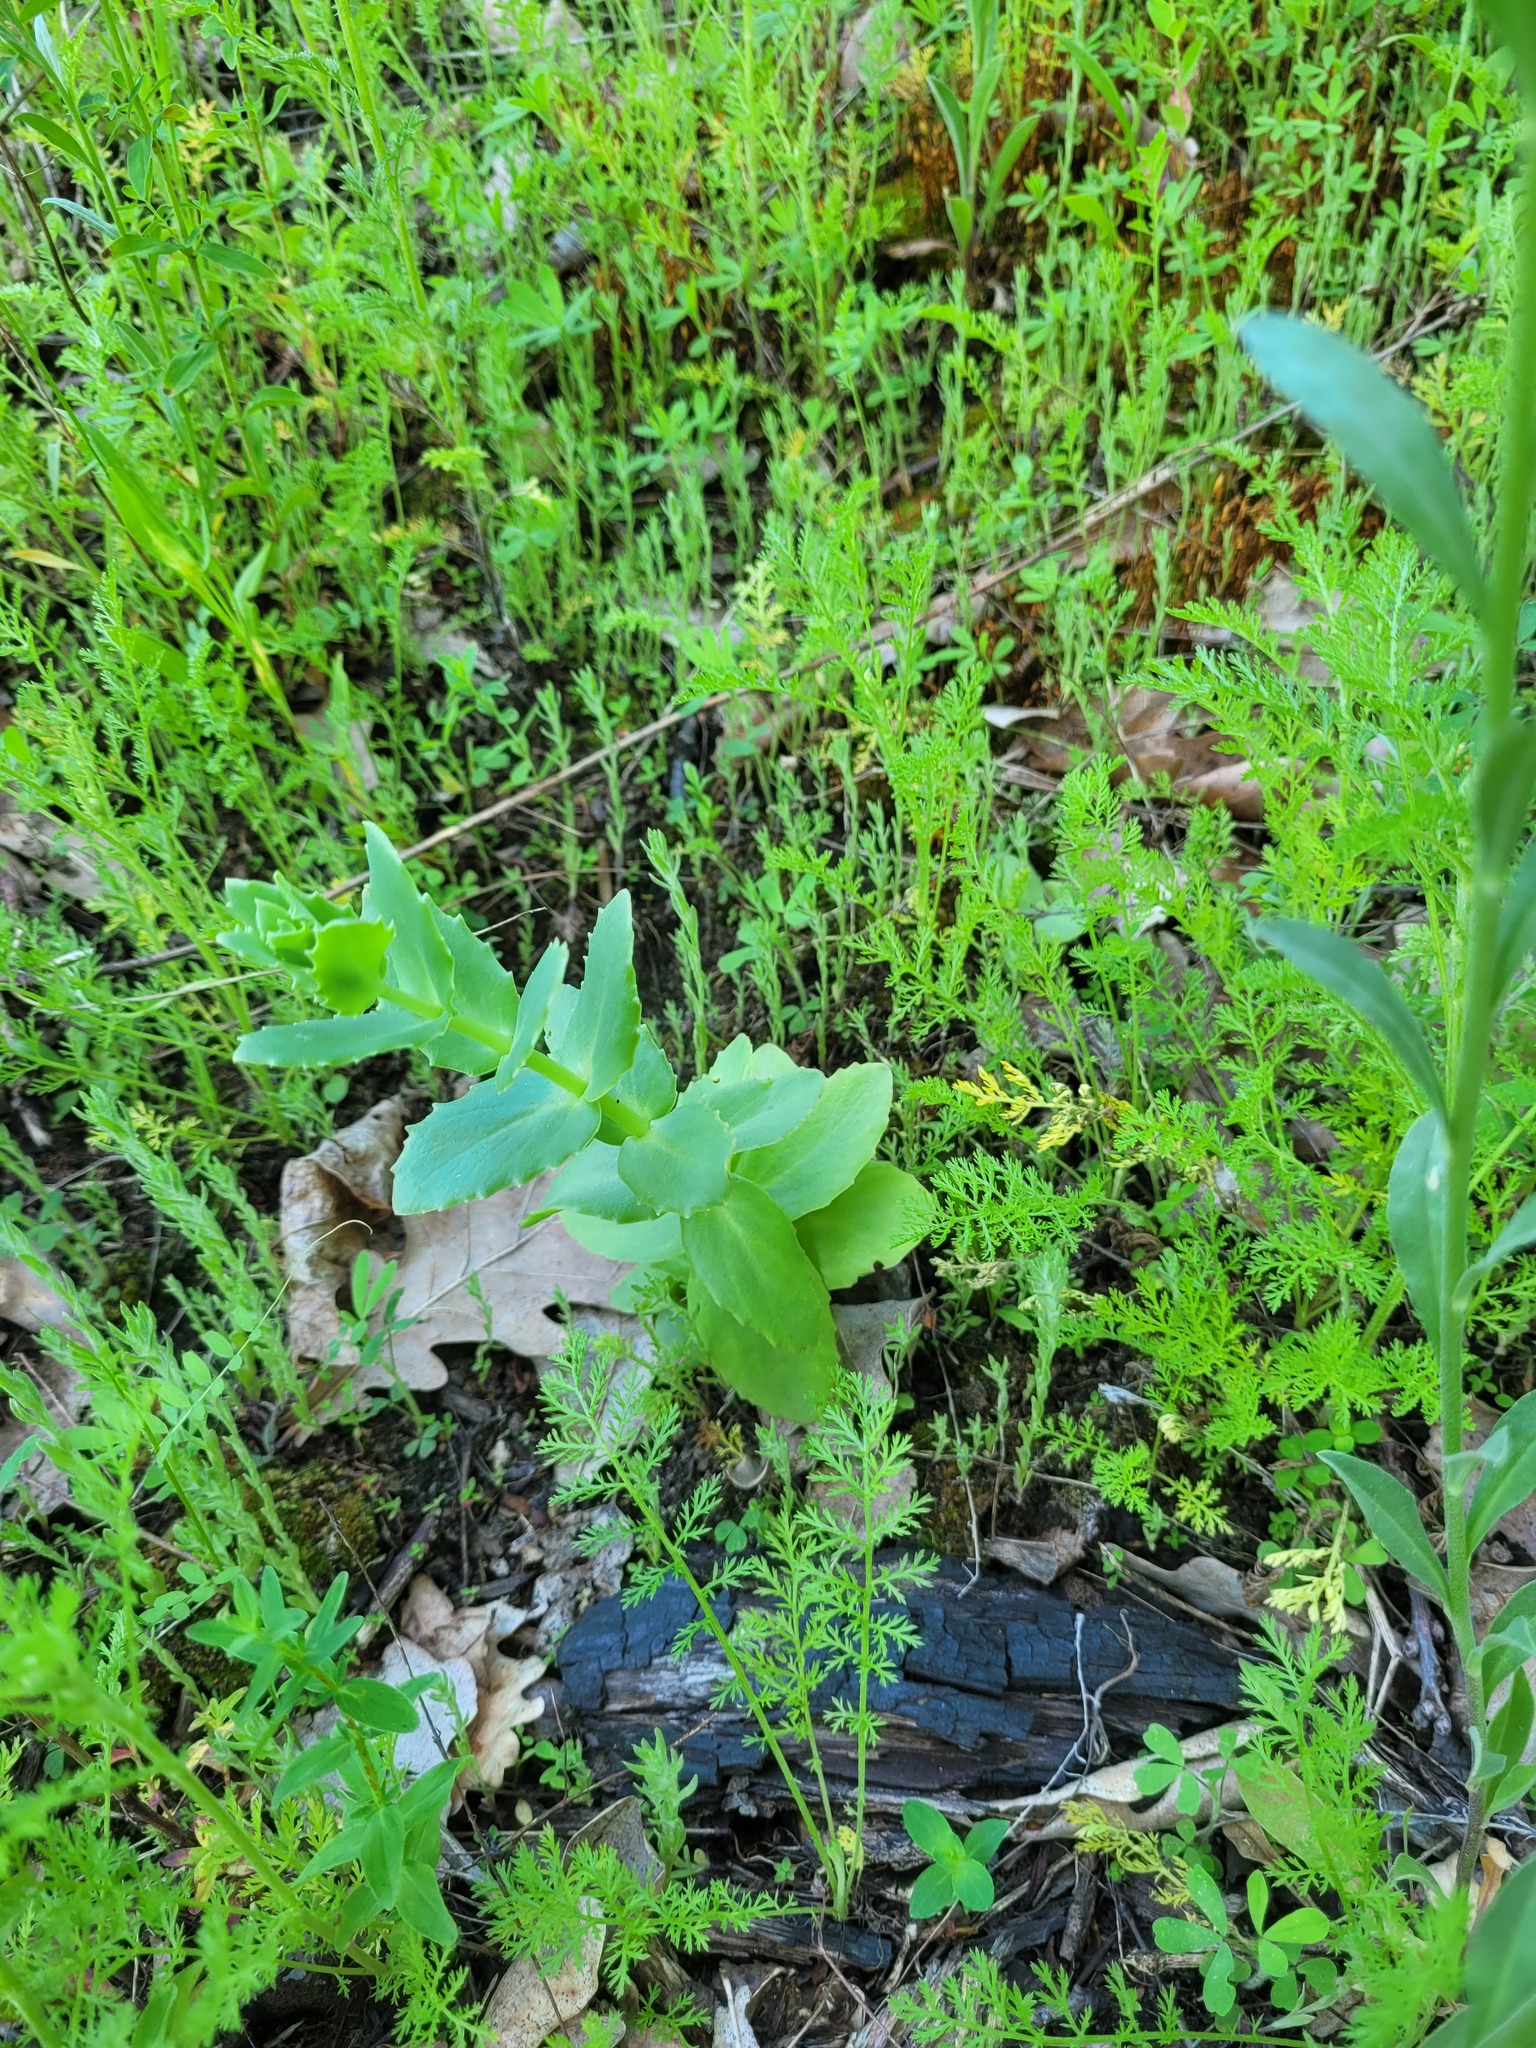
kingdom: Plantae
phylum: Tracheophyta
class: Magnoliopsida
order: Saxifragales
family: Crassulaceae
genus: Hylotelephium
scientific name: Hylotelephium maximum
